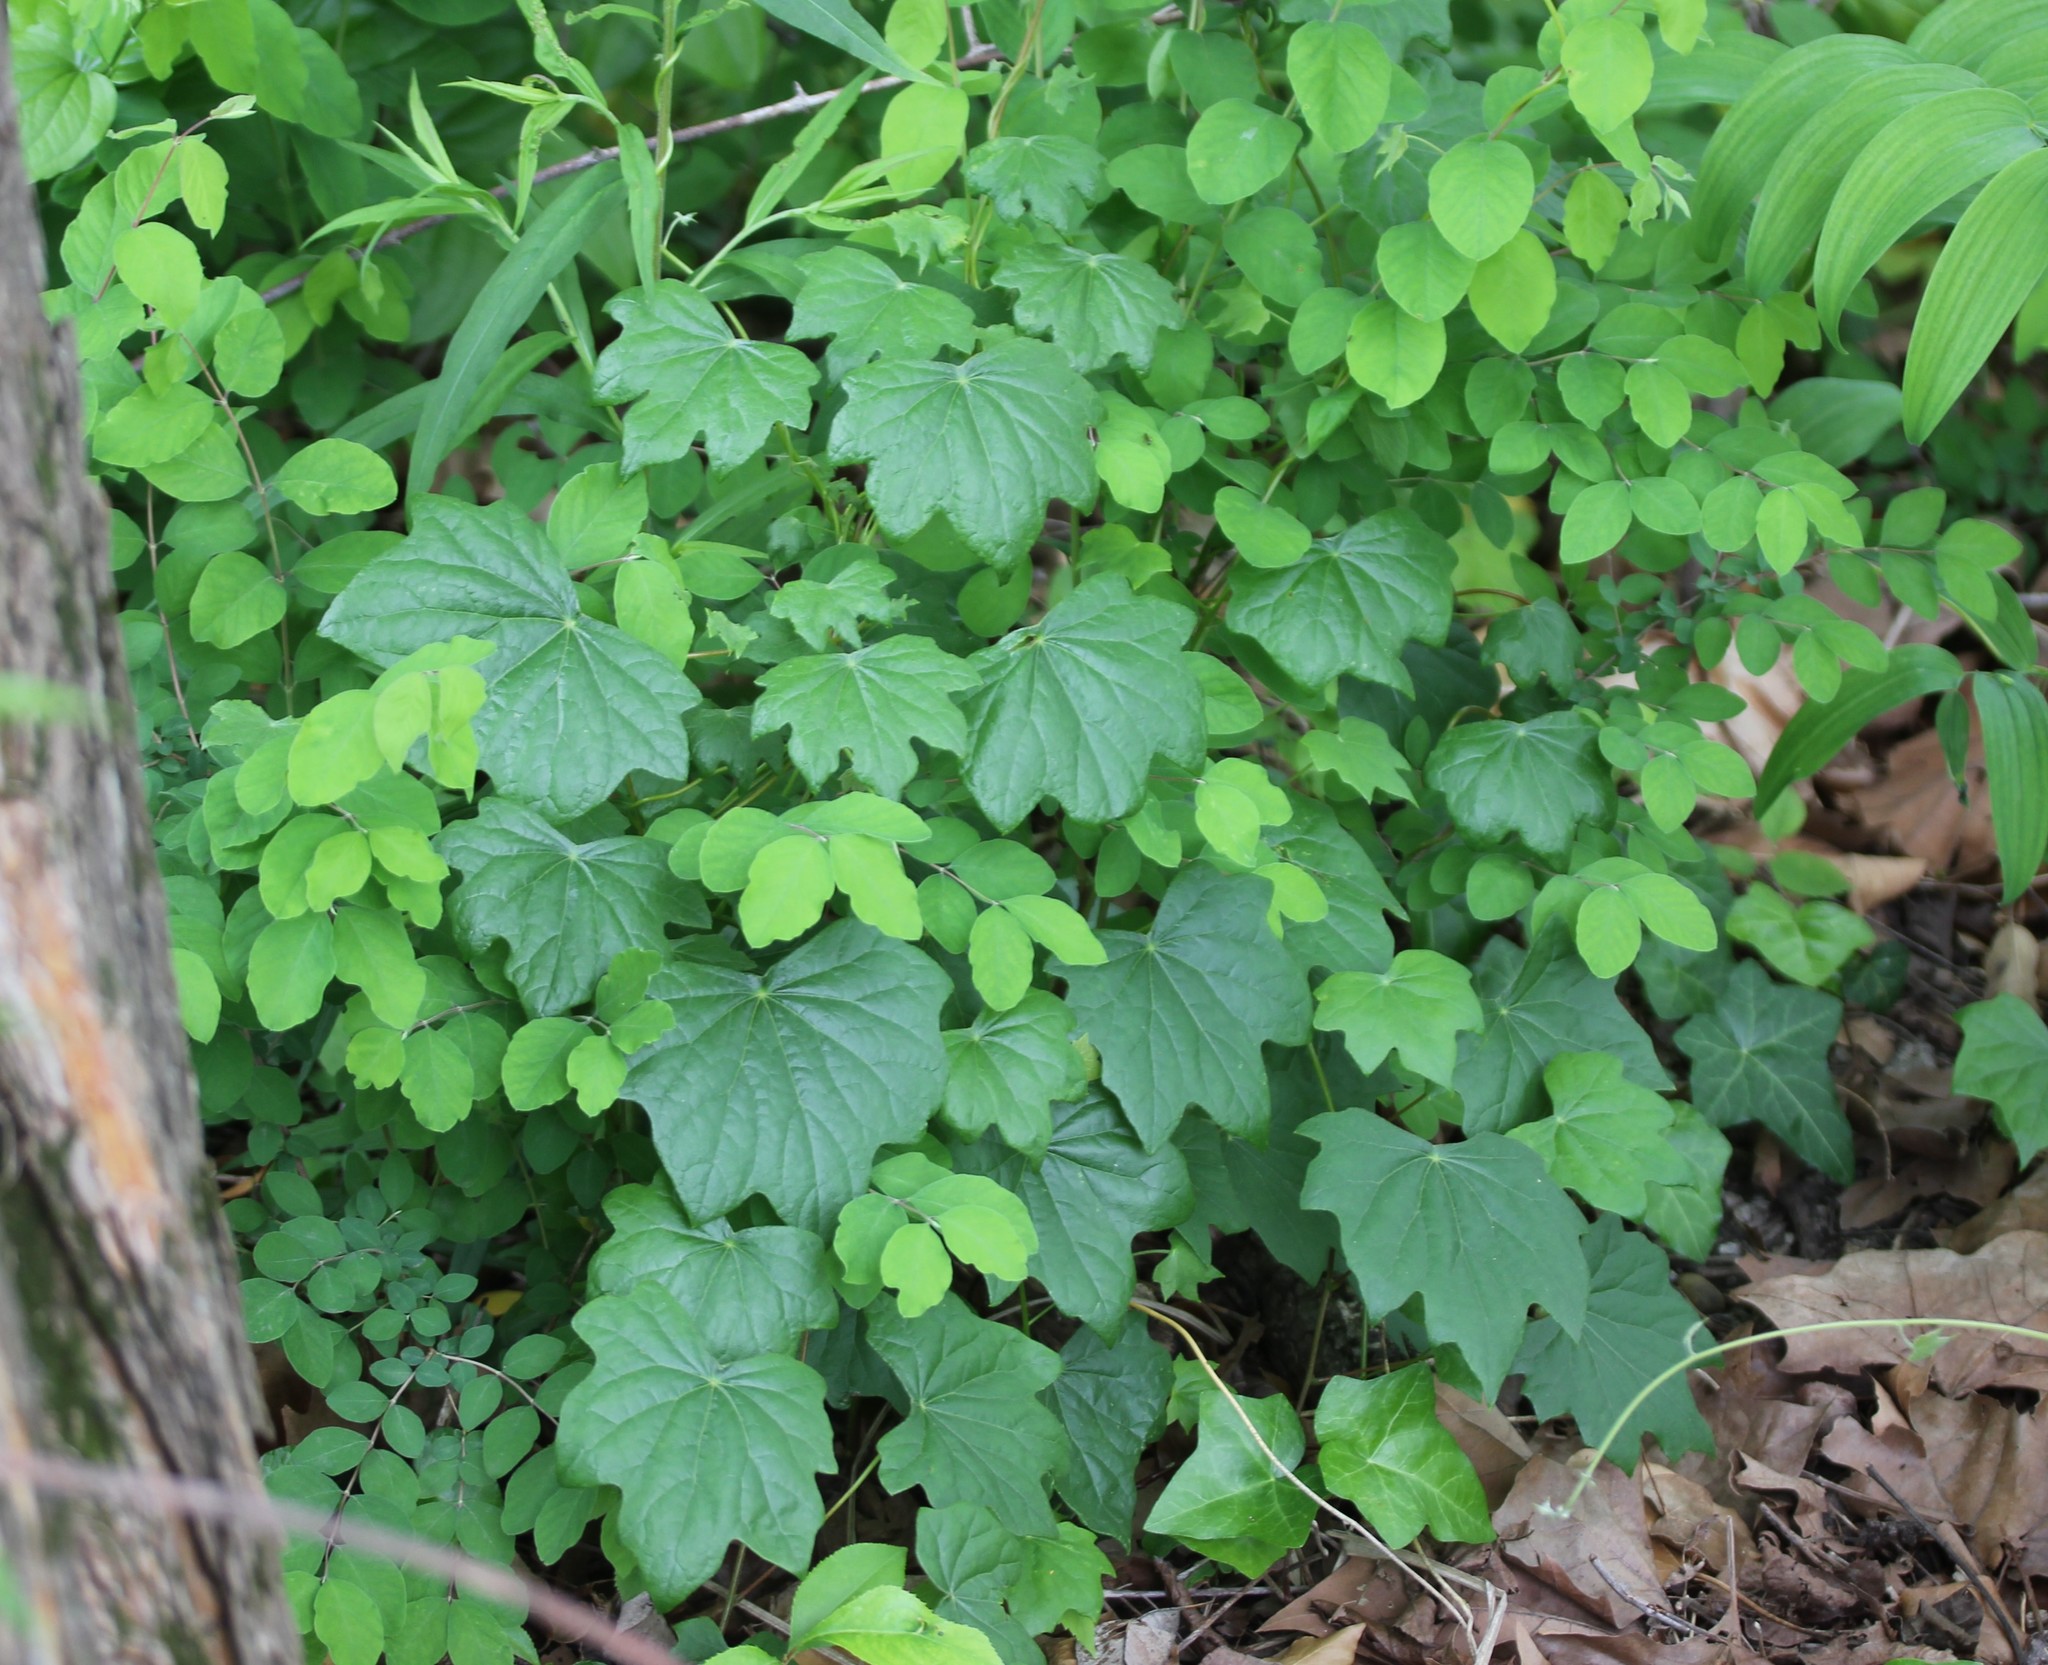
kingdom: Plantae
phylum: Tracheophyta
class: Magnoliopsida
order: Ranunculales
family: Menispermaceae
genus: Menispermum
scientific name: Menispermum canadense
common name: Moonseed
